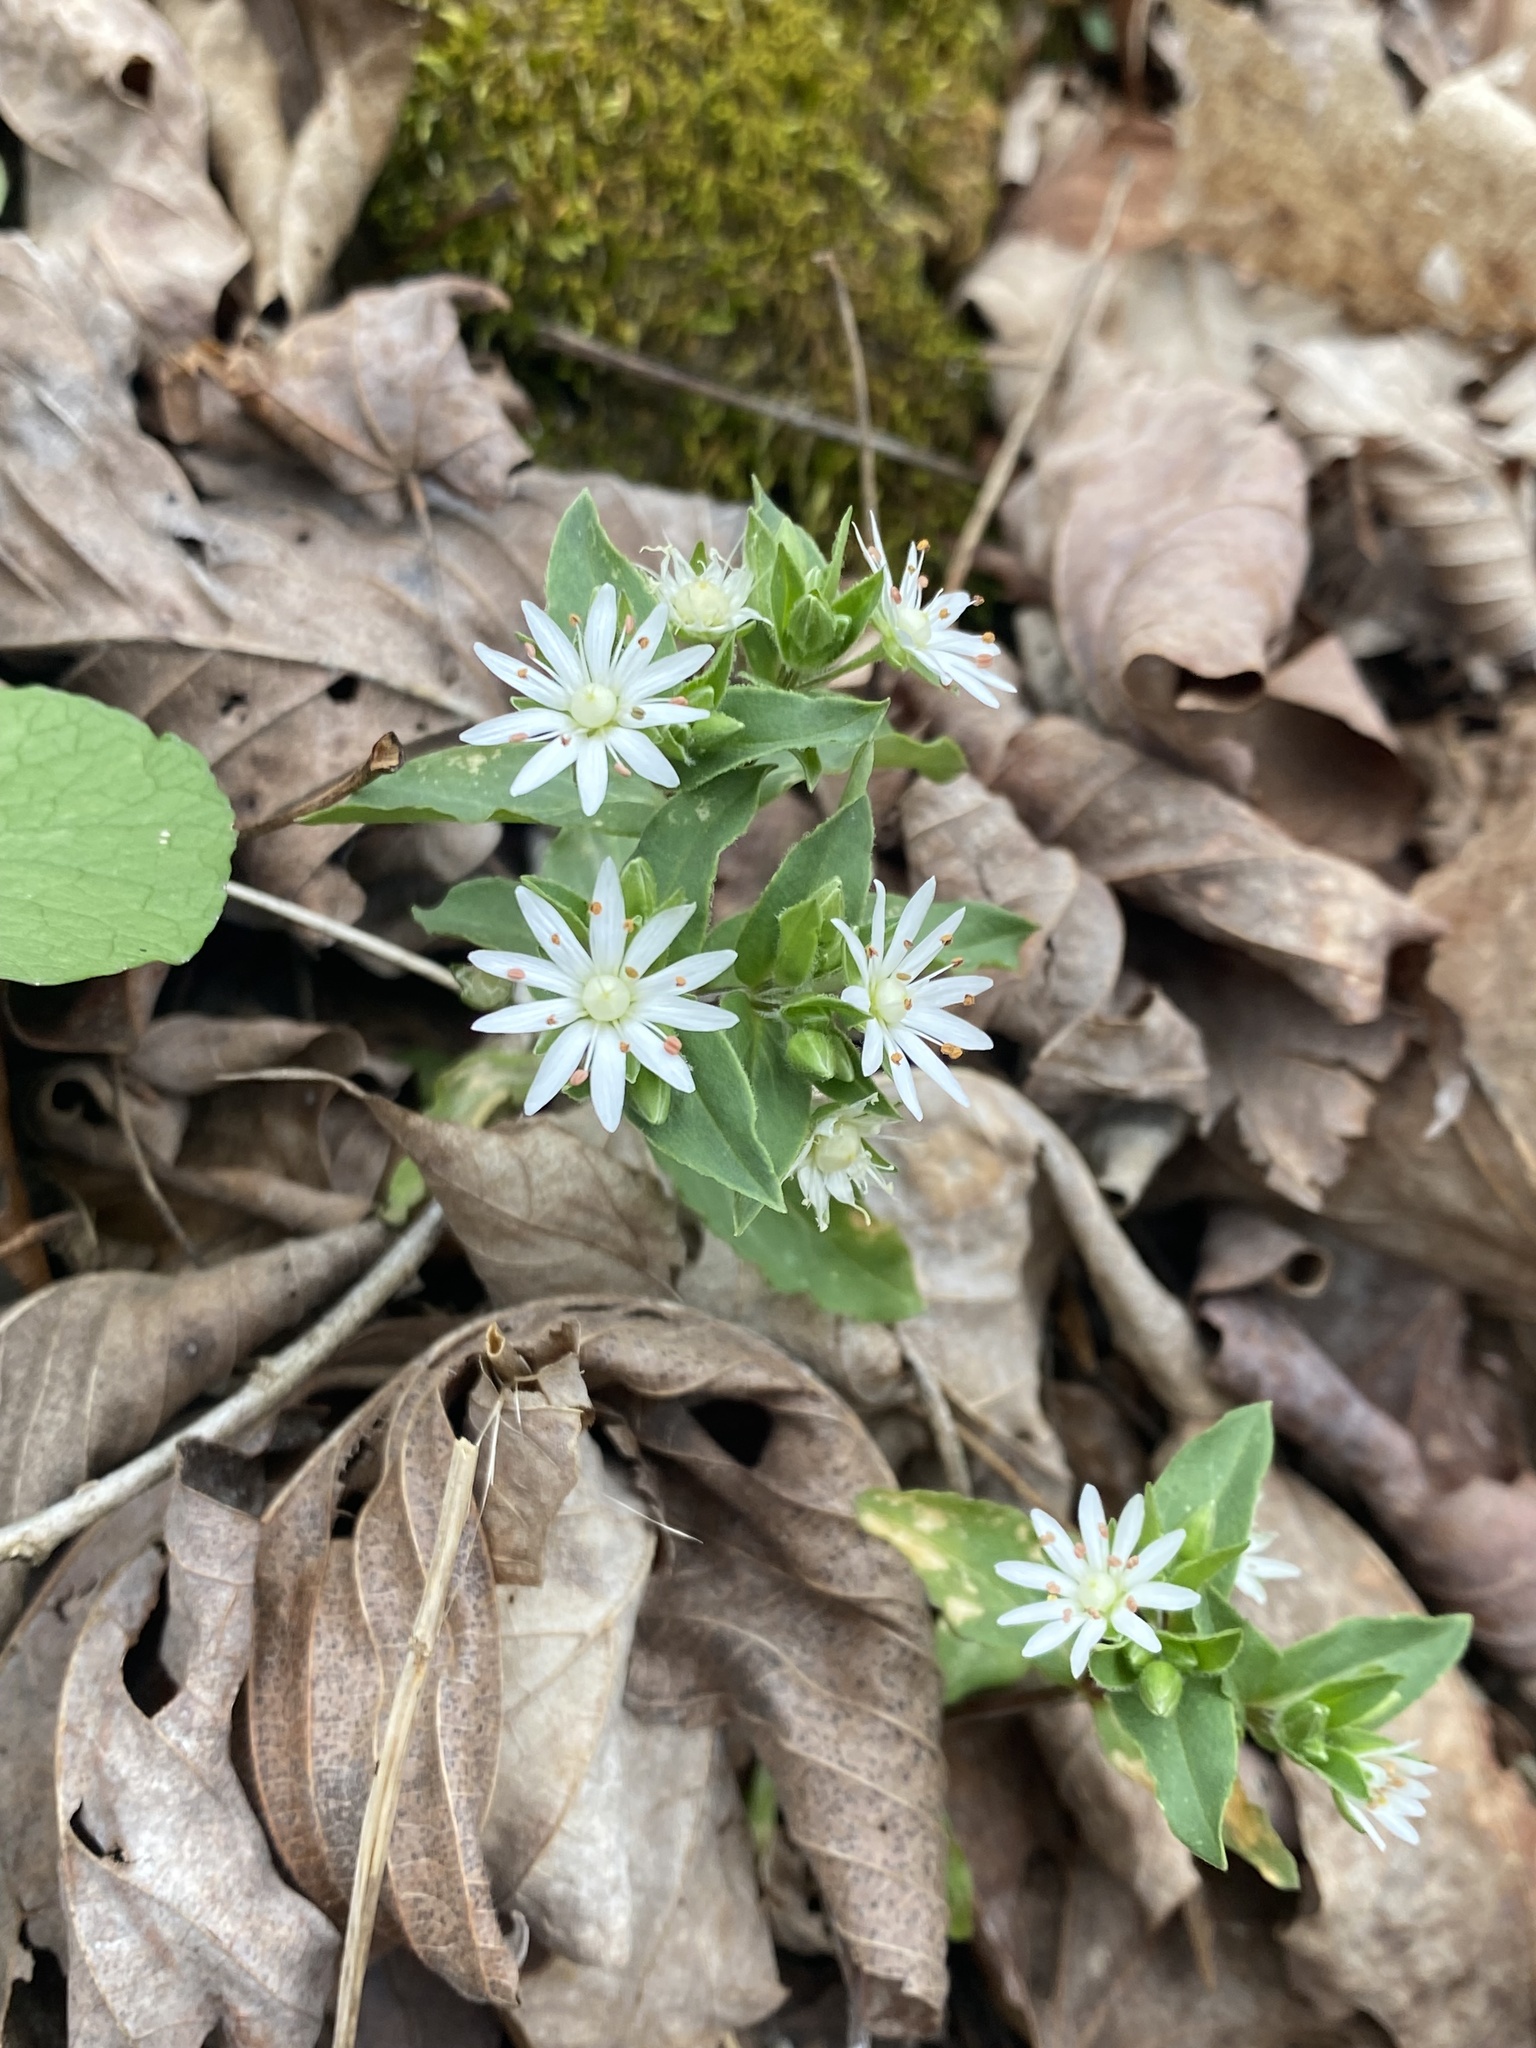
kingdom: Plantae
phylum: Tracheophyta
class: Magnoliopsida
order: Caryophyllales
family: Caryophyllaceae
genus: Stellaria
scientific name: Stellaria pubera
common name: Star chickweed
